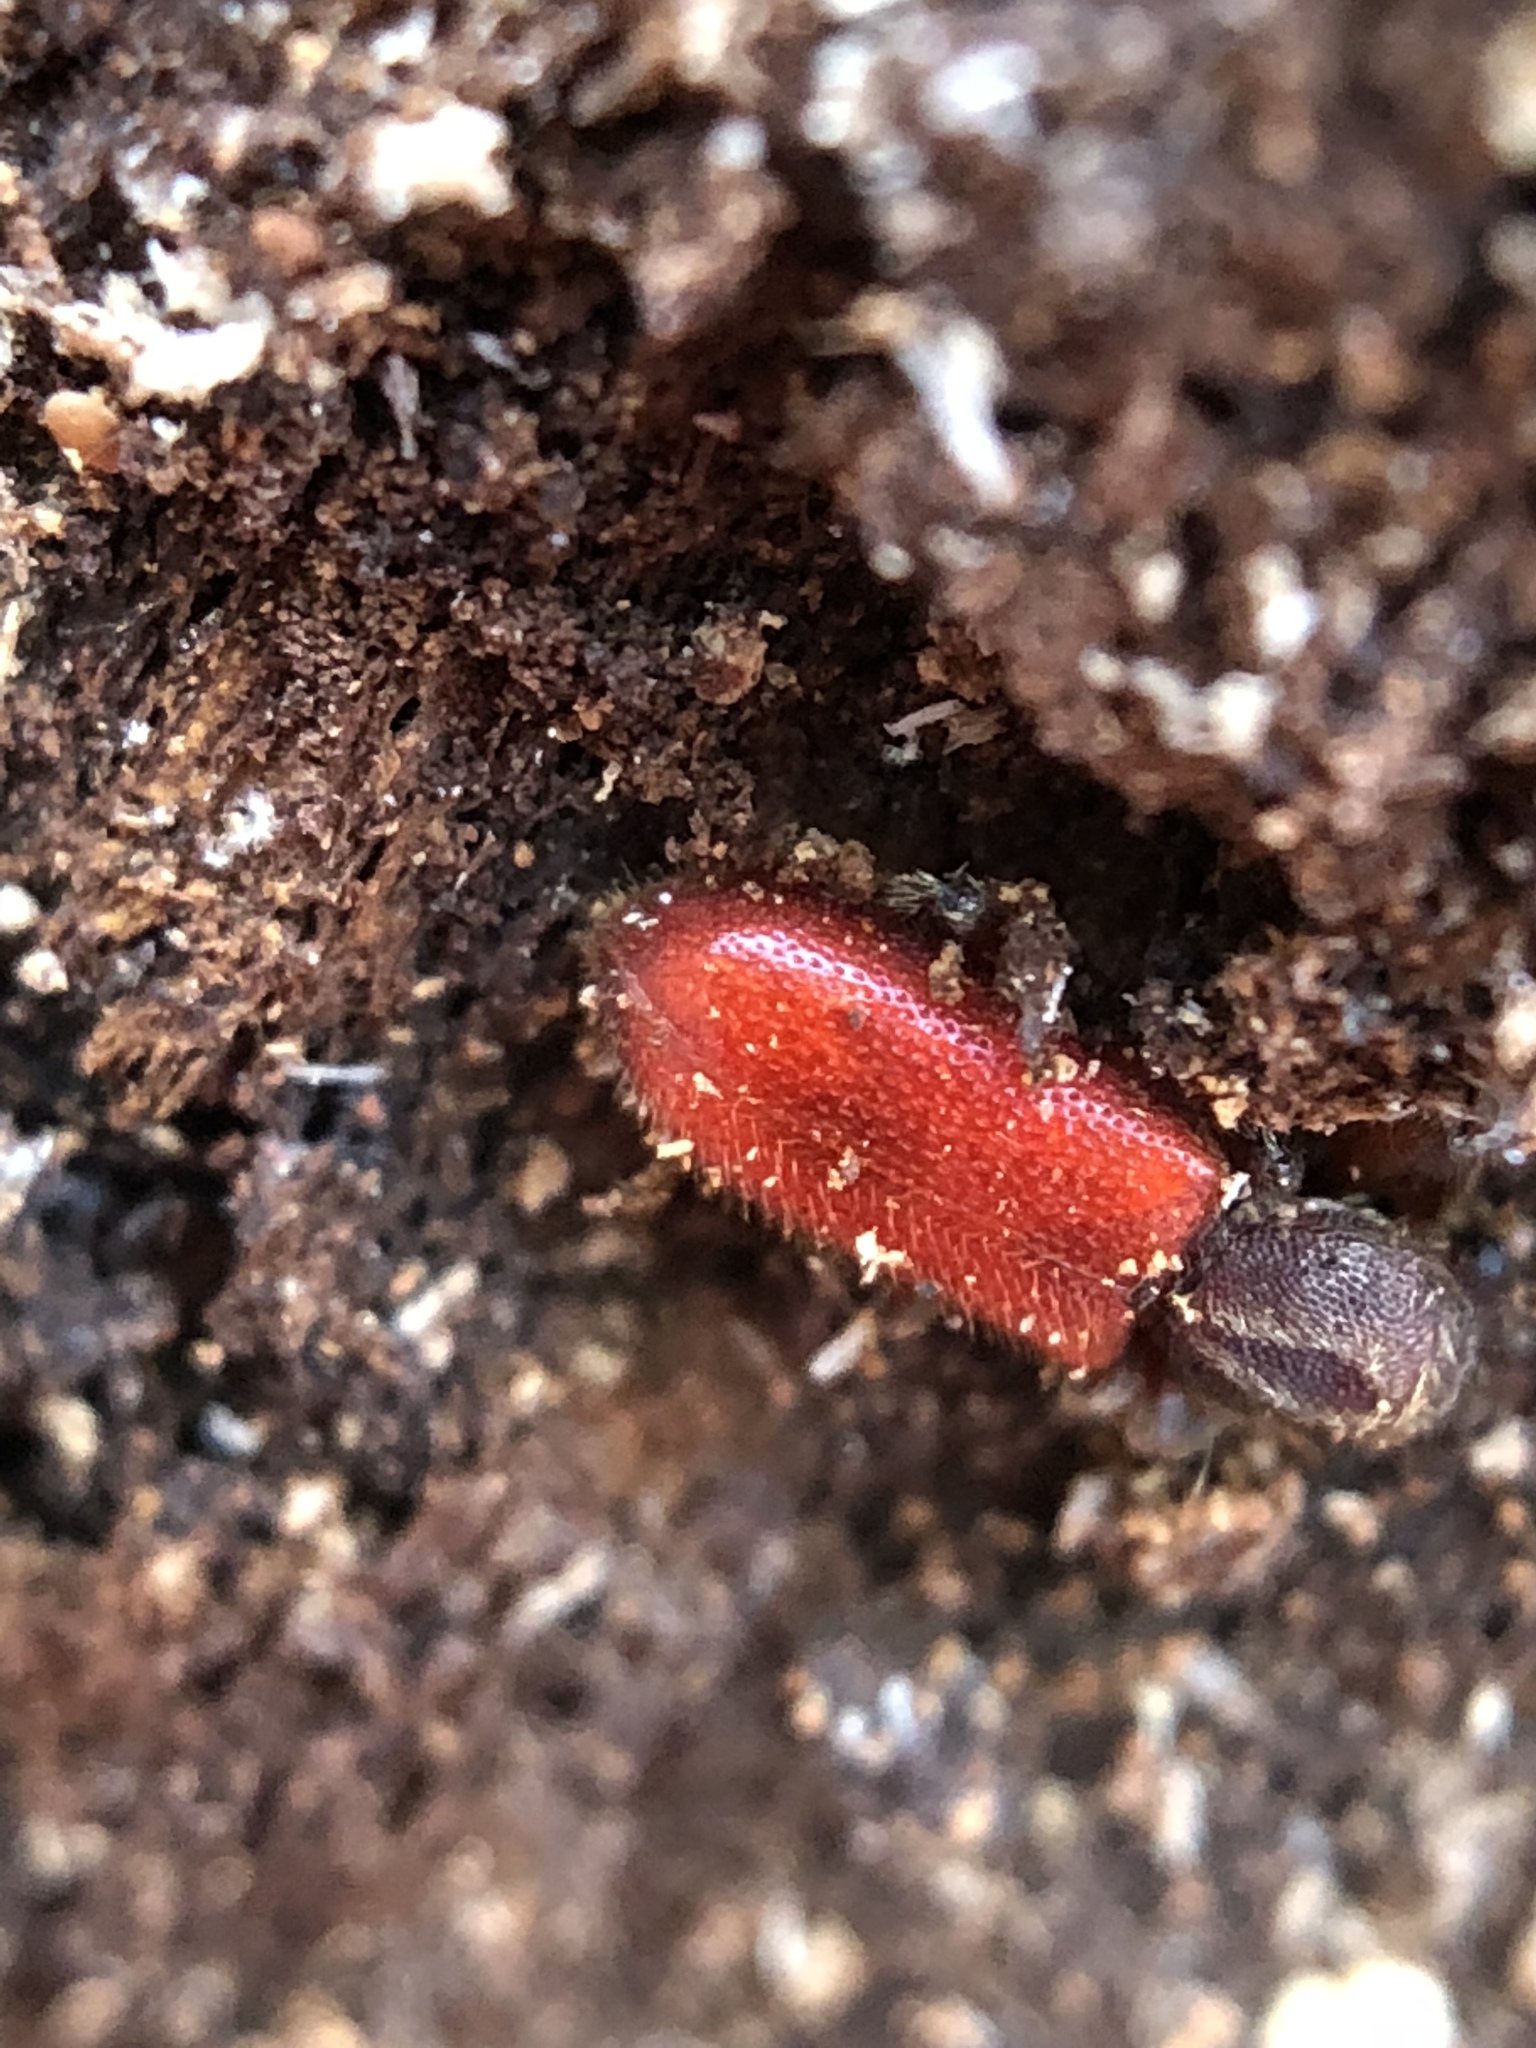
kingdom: Animalia
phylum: Arthropoda
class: Insecta
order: Coleoptera
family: Thanerocleridae
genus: Zenodosus
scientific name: Zenodosus sanguineus
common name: Blood-colored checkered beetle
